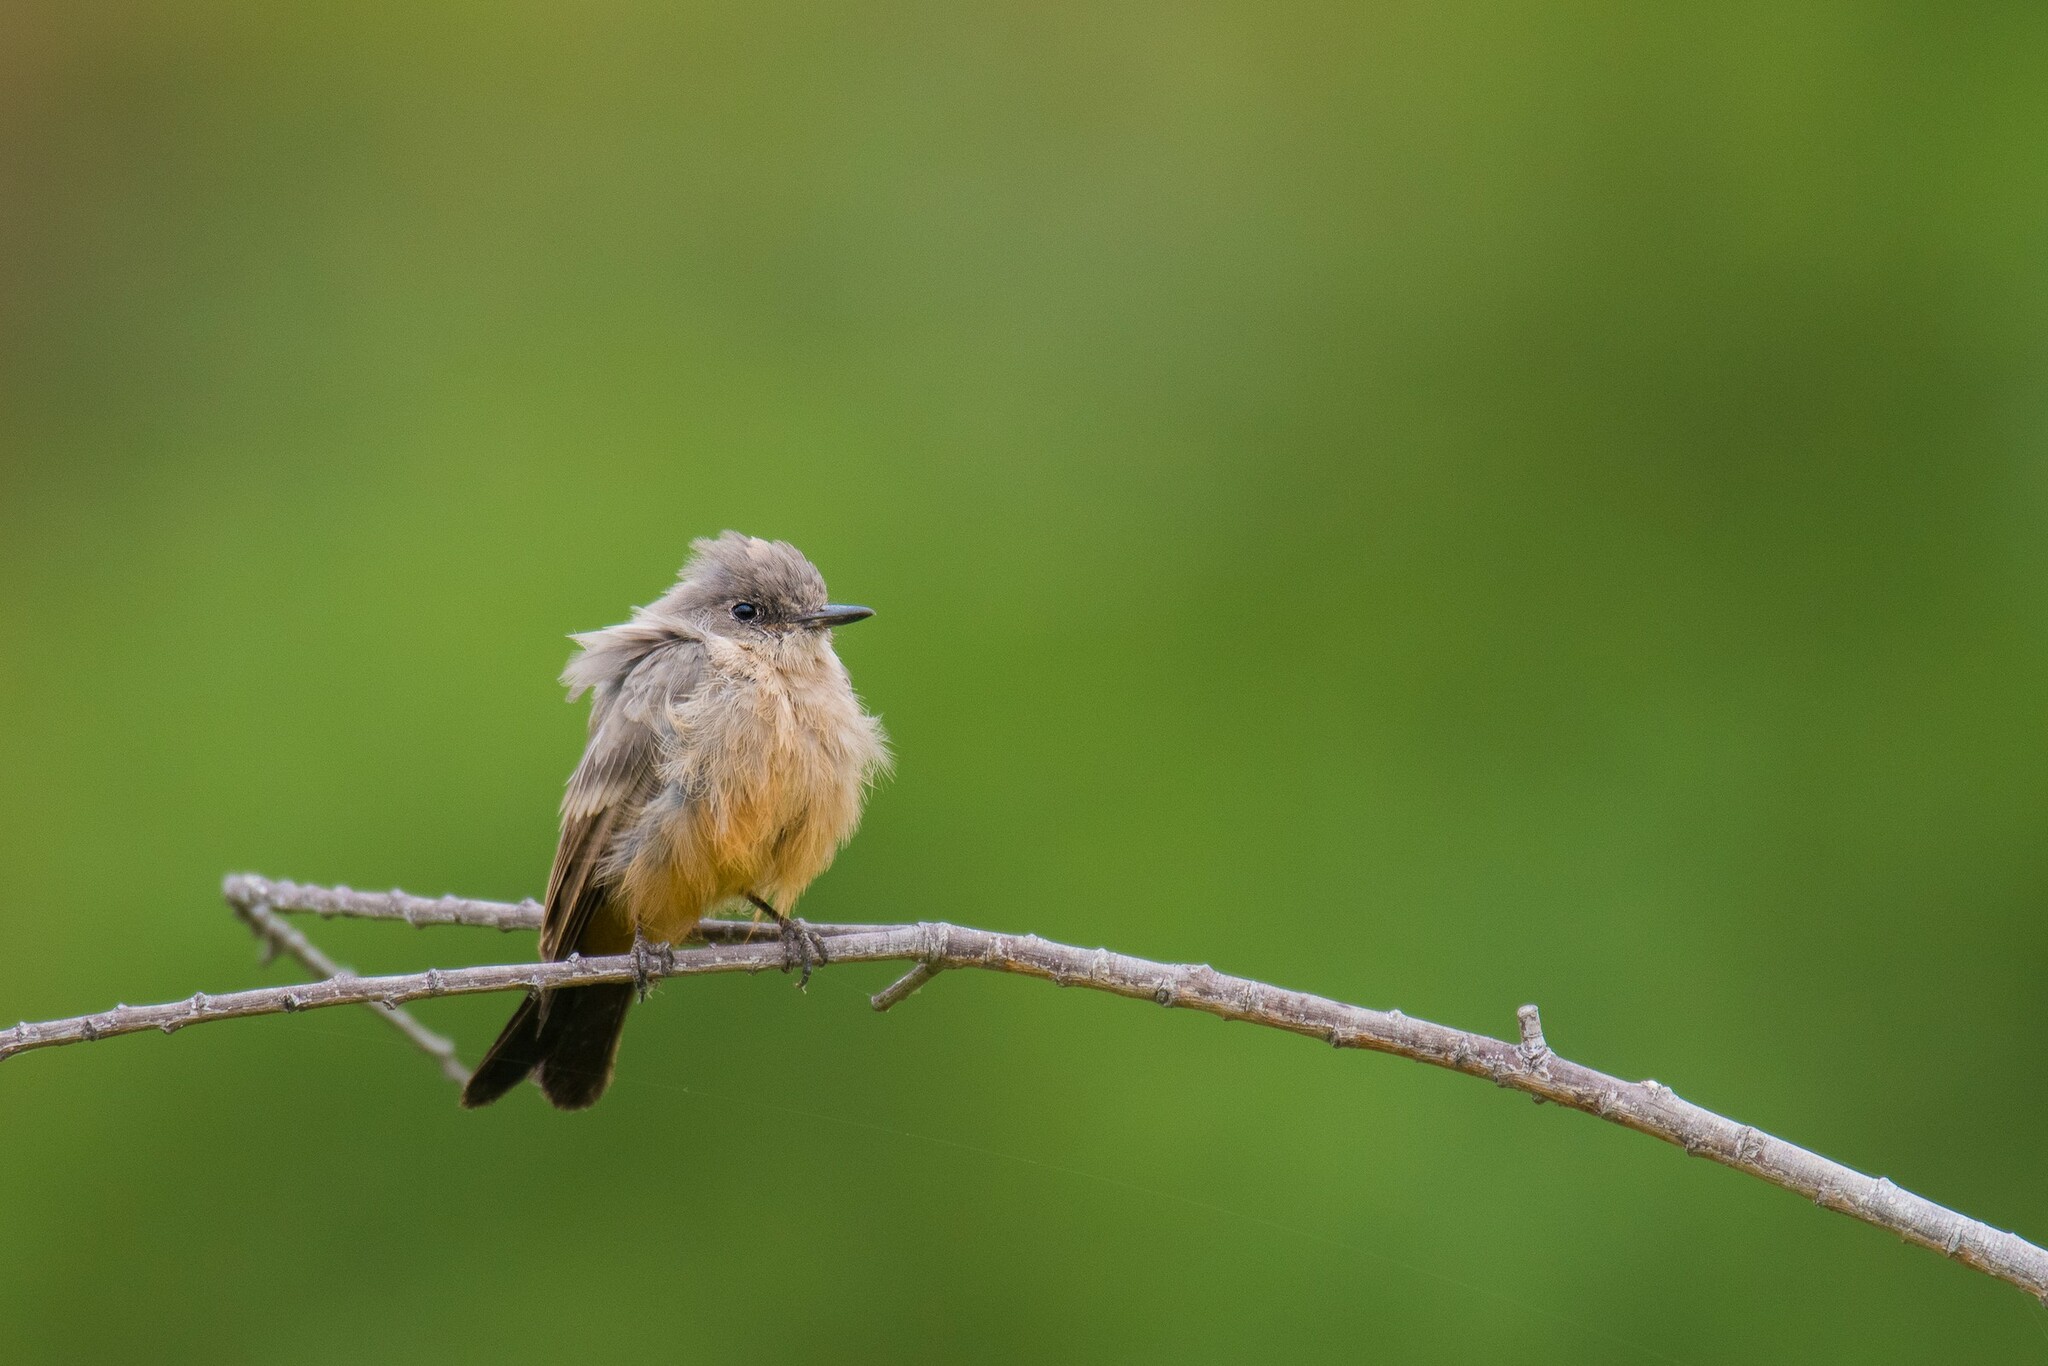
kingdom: Animalia
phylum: Chordata
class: Aves
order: Passeriformes
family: Tyrannidae
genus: Sayornis
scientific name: Sayornis saya
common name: Say's phoebe
